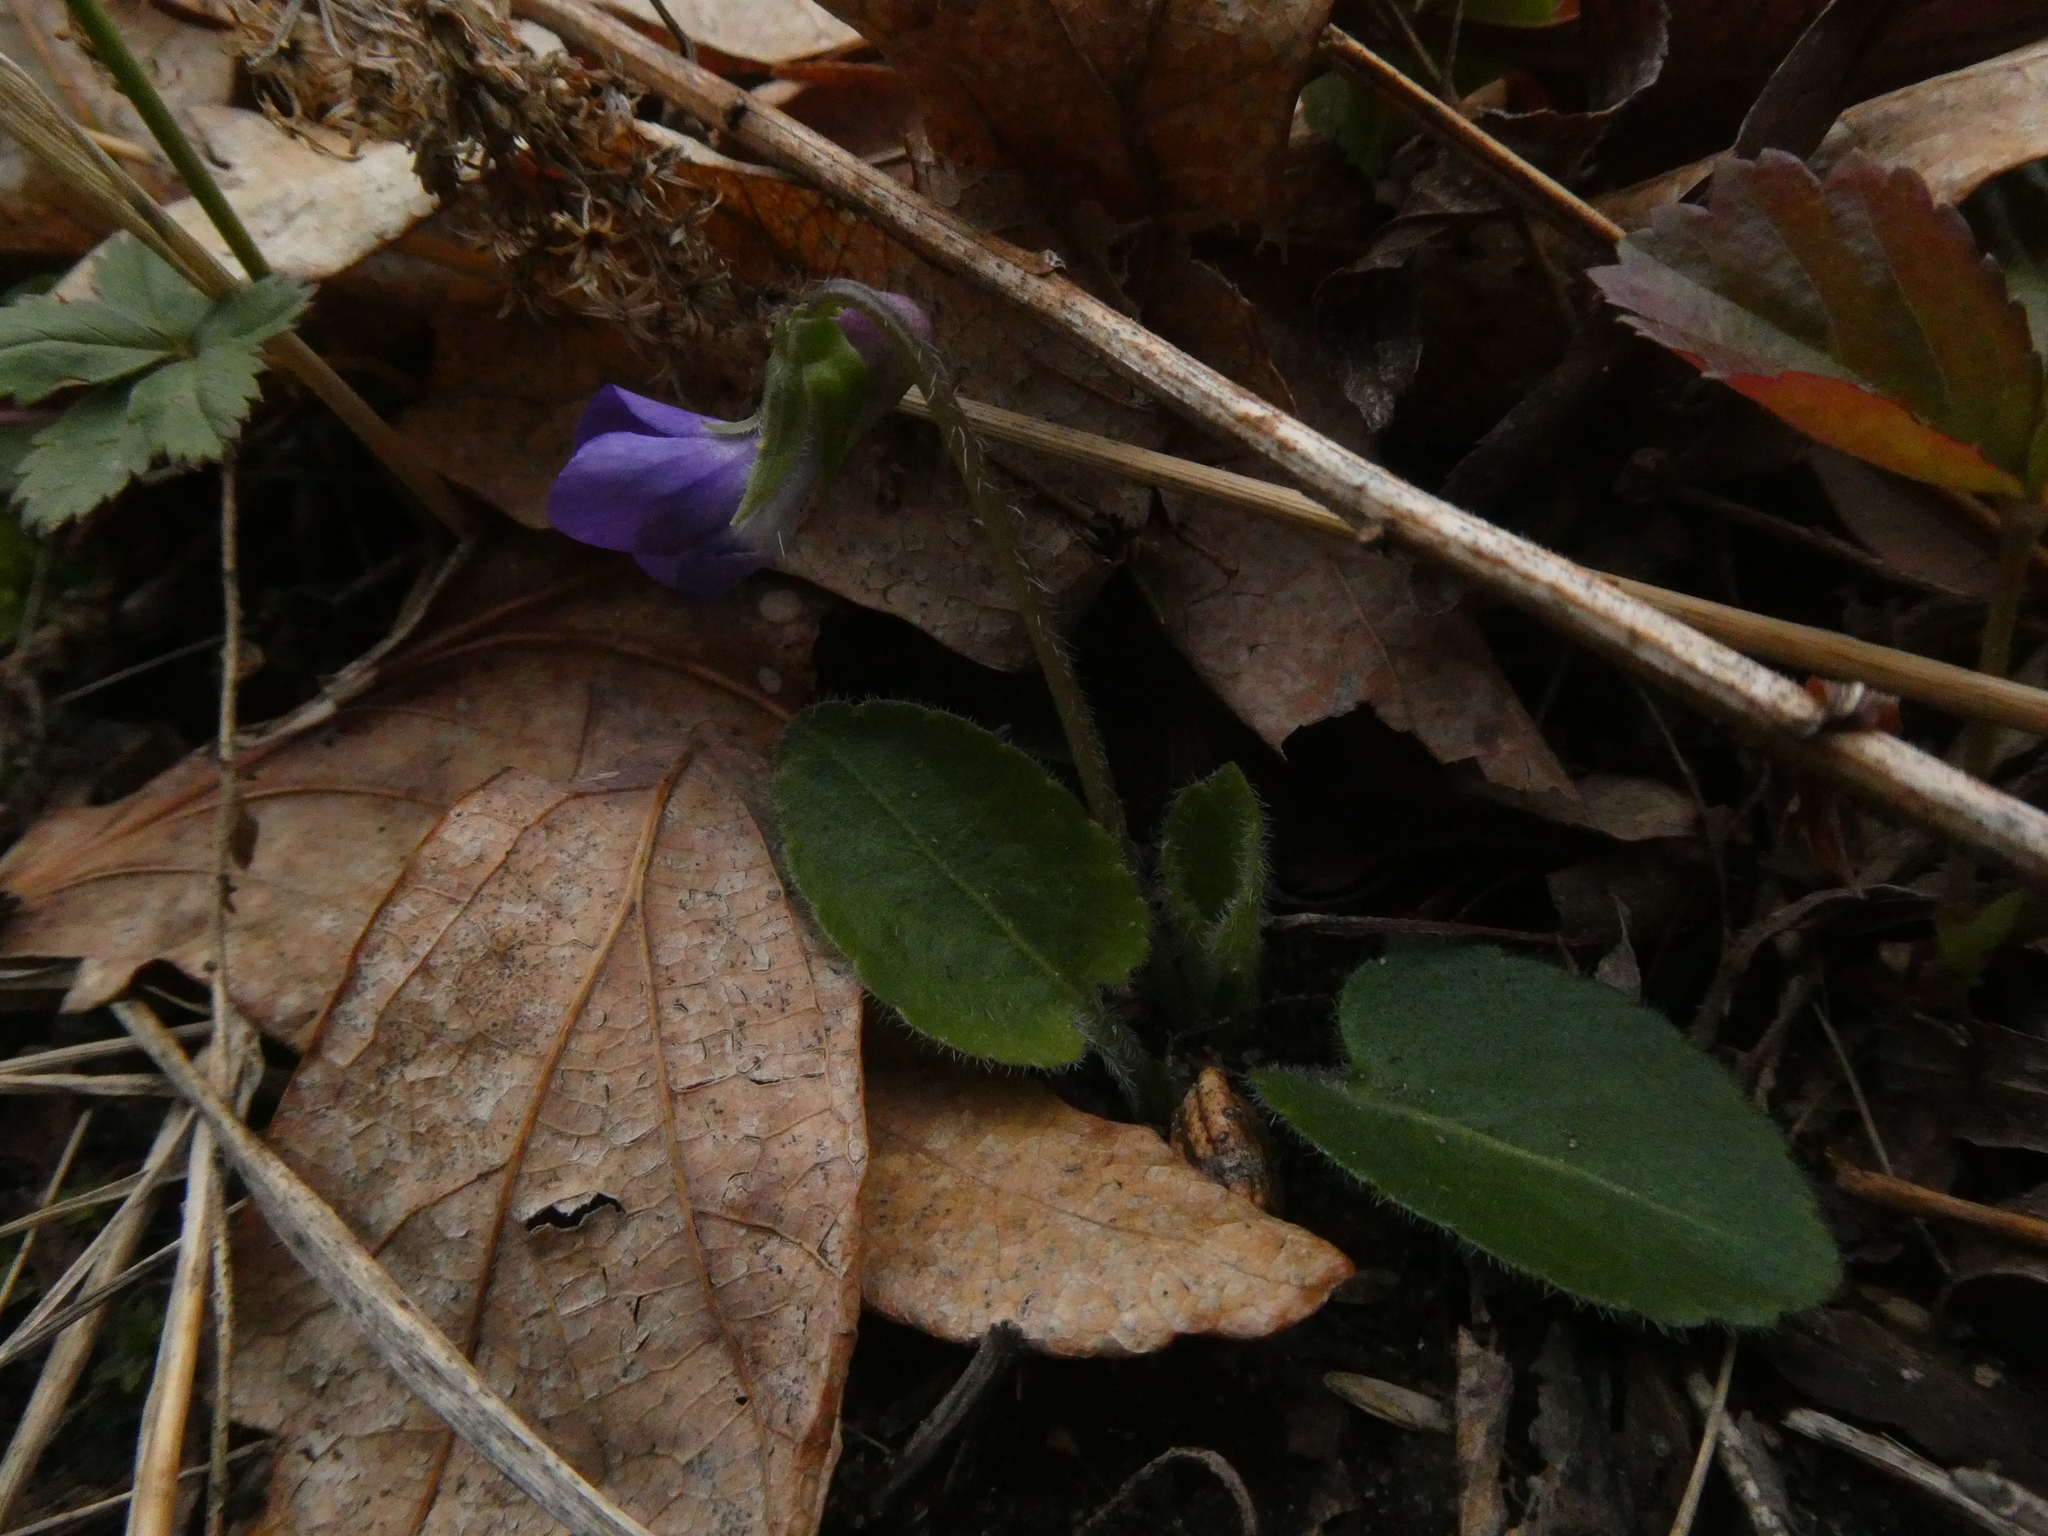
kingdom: Plantae
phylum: Tracheophyta
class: Magnoliopsida
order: Malpighiales
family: Violaceae
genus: Viola
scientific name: Viola fimbriatula
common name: Sand violet
